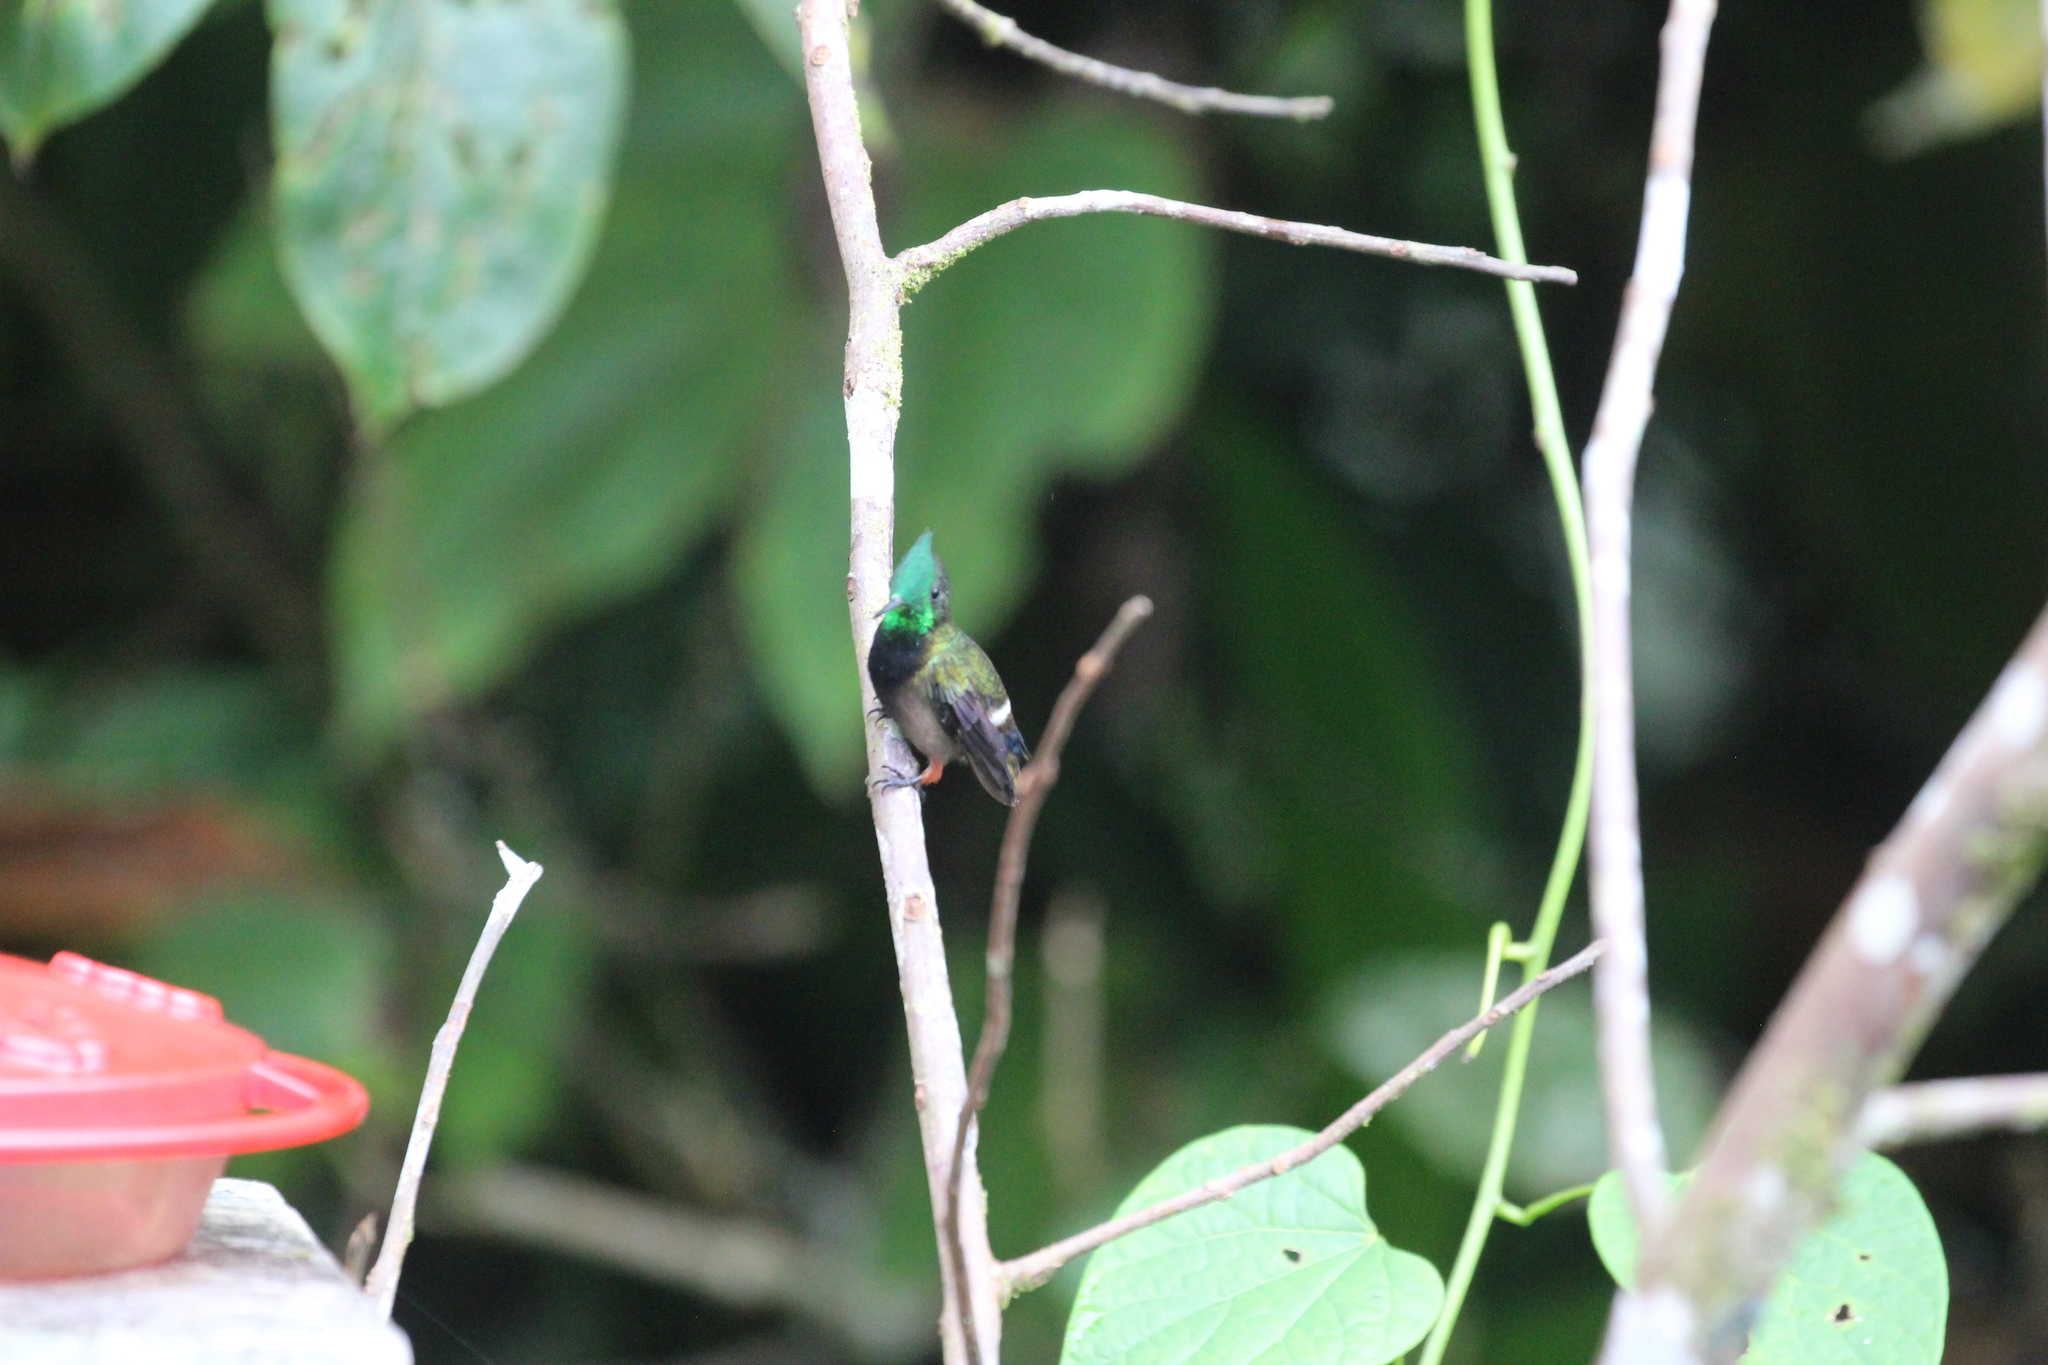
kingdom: Animalia
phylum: Chordata
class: Aves
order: Apodiformes
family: Trochilidae
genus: Discosura
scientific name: Discosura popelairii
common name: Wire-crested thorntail
